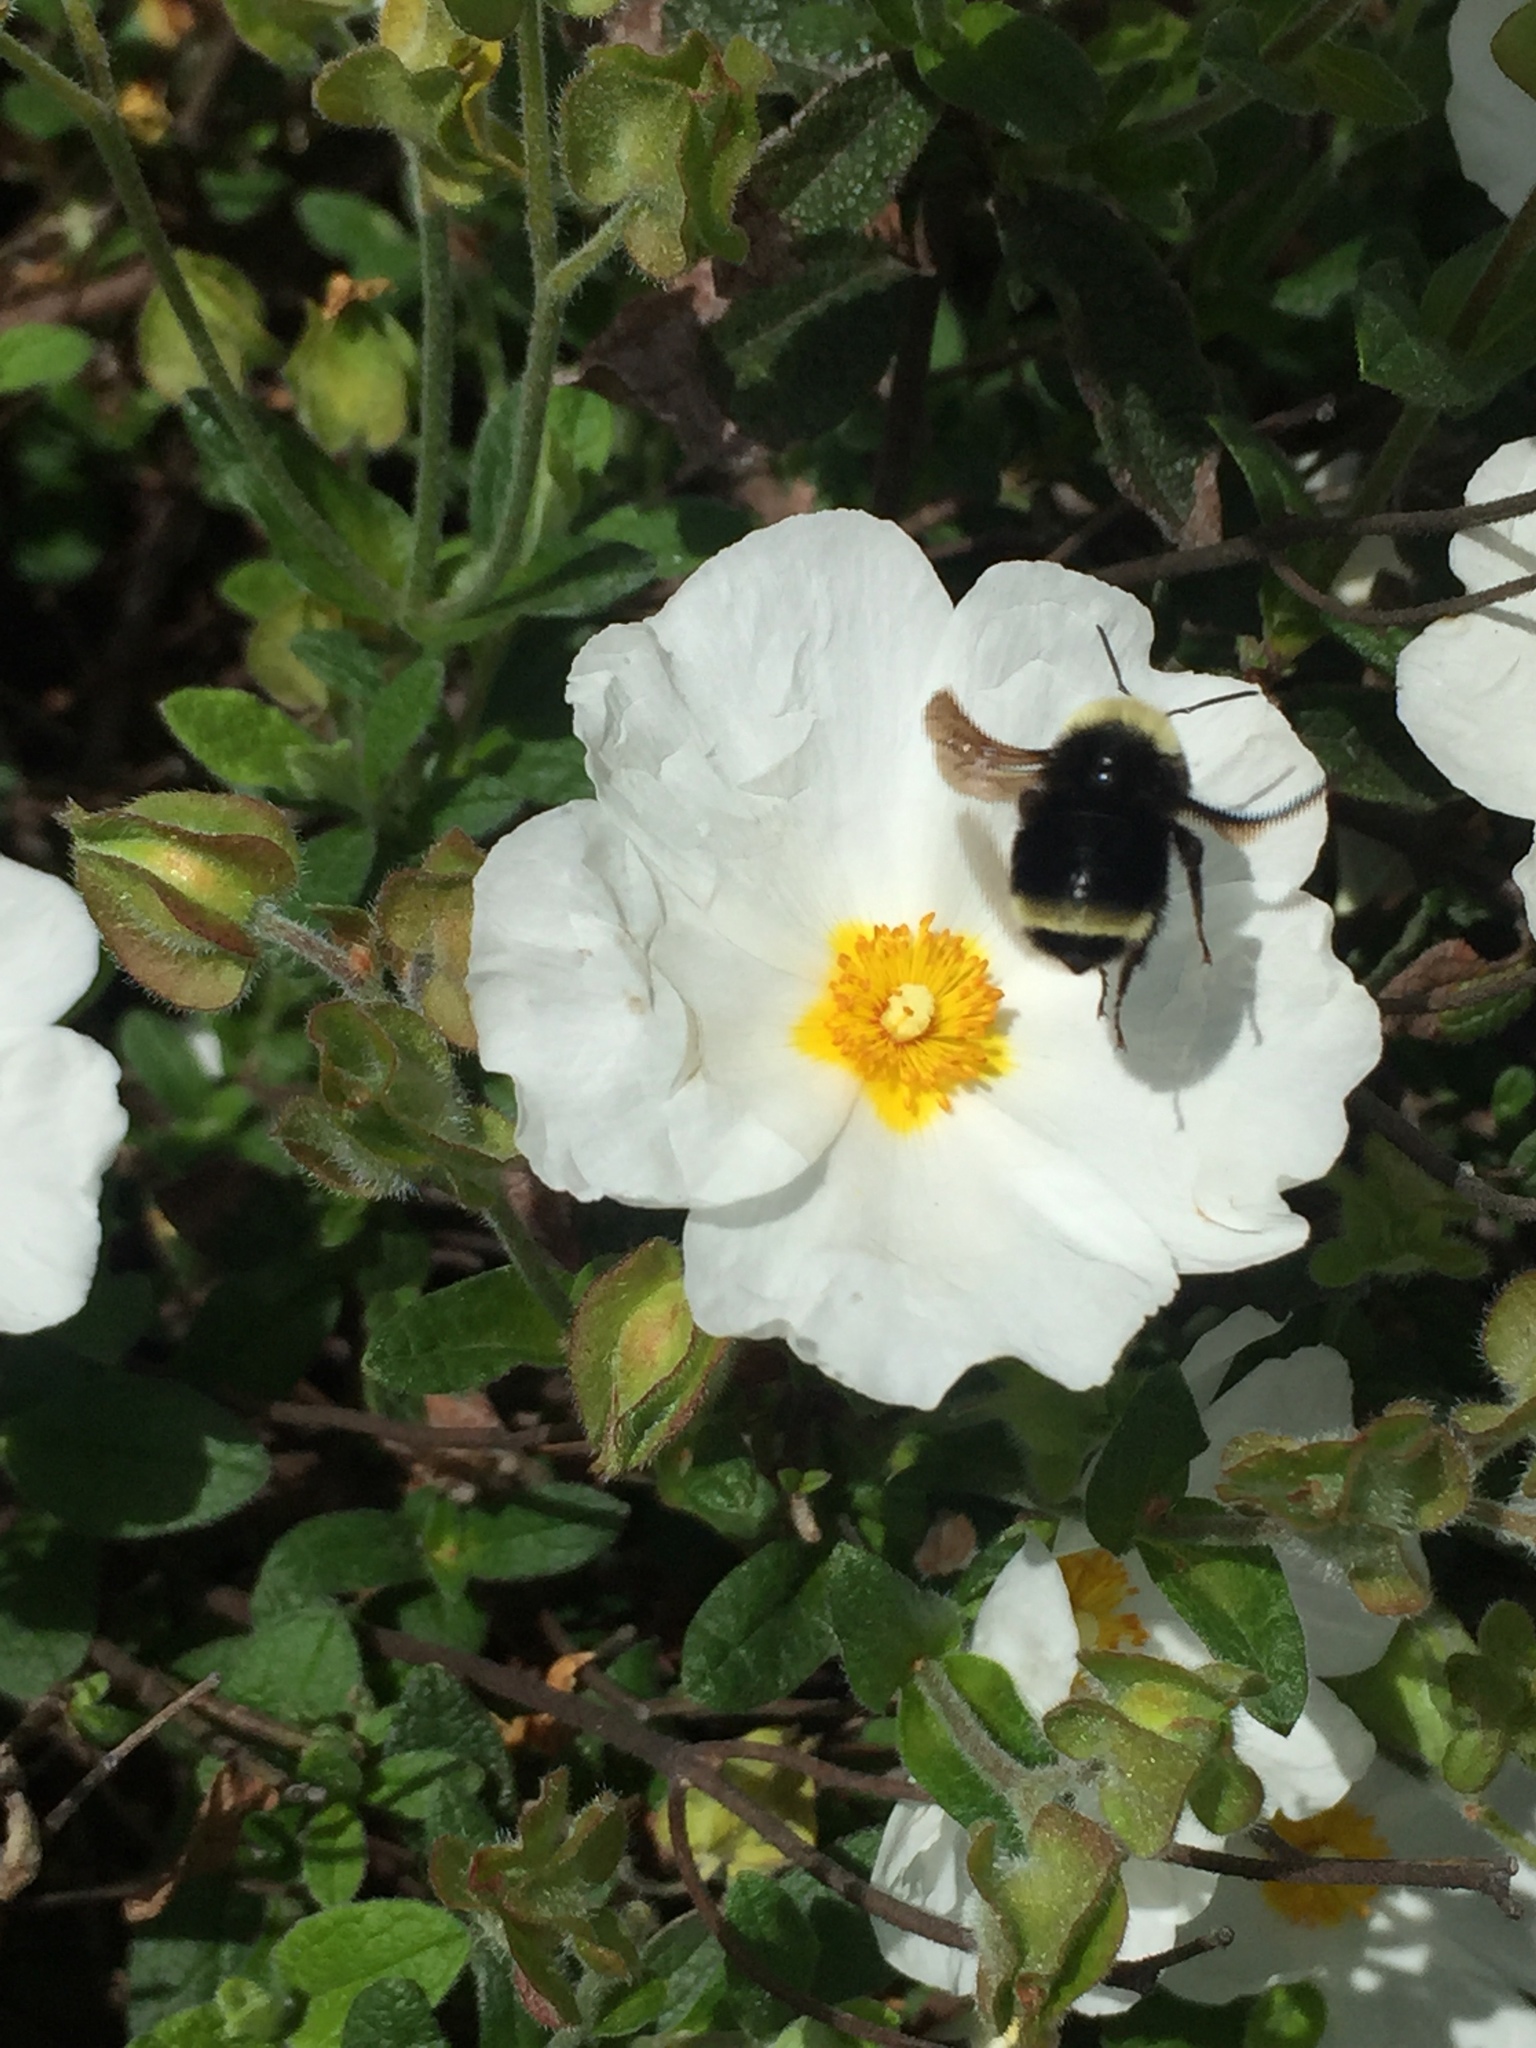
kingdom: Animalia
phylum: Arthropoda
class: Insecta
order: Hymenoptera
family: Apidae
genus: Bombus
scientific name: Bombus vosnesenskii
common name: Vosnesensky bumble bee
